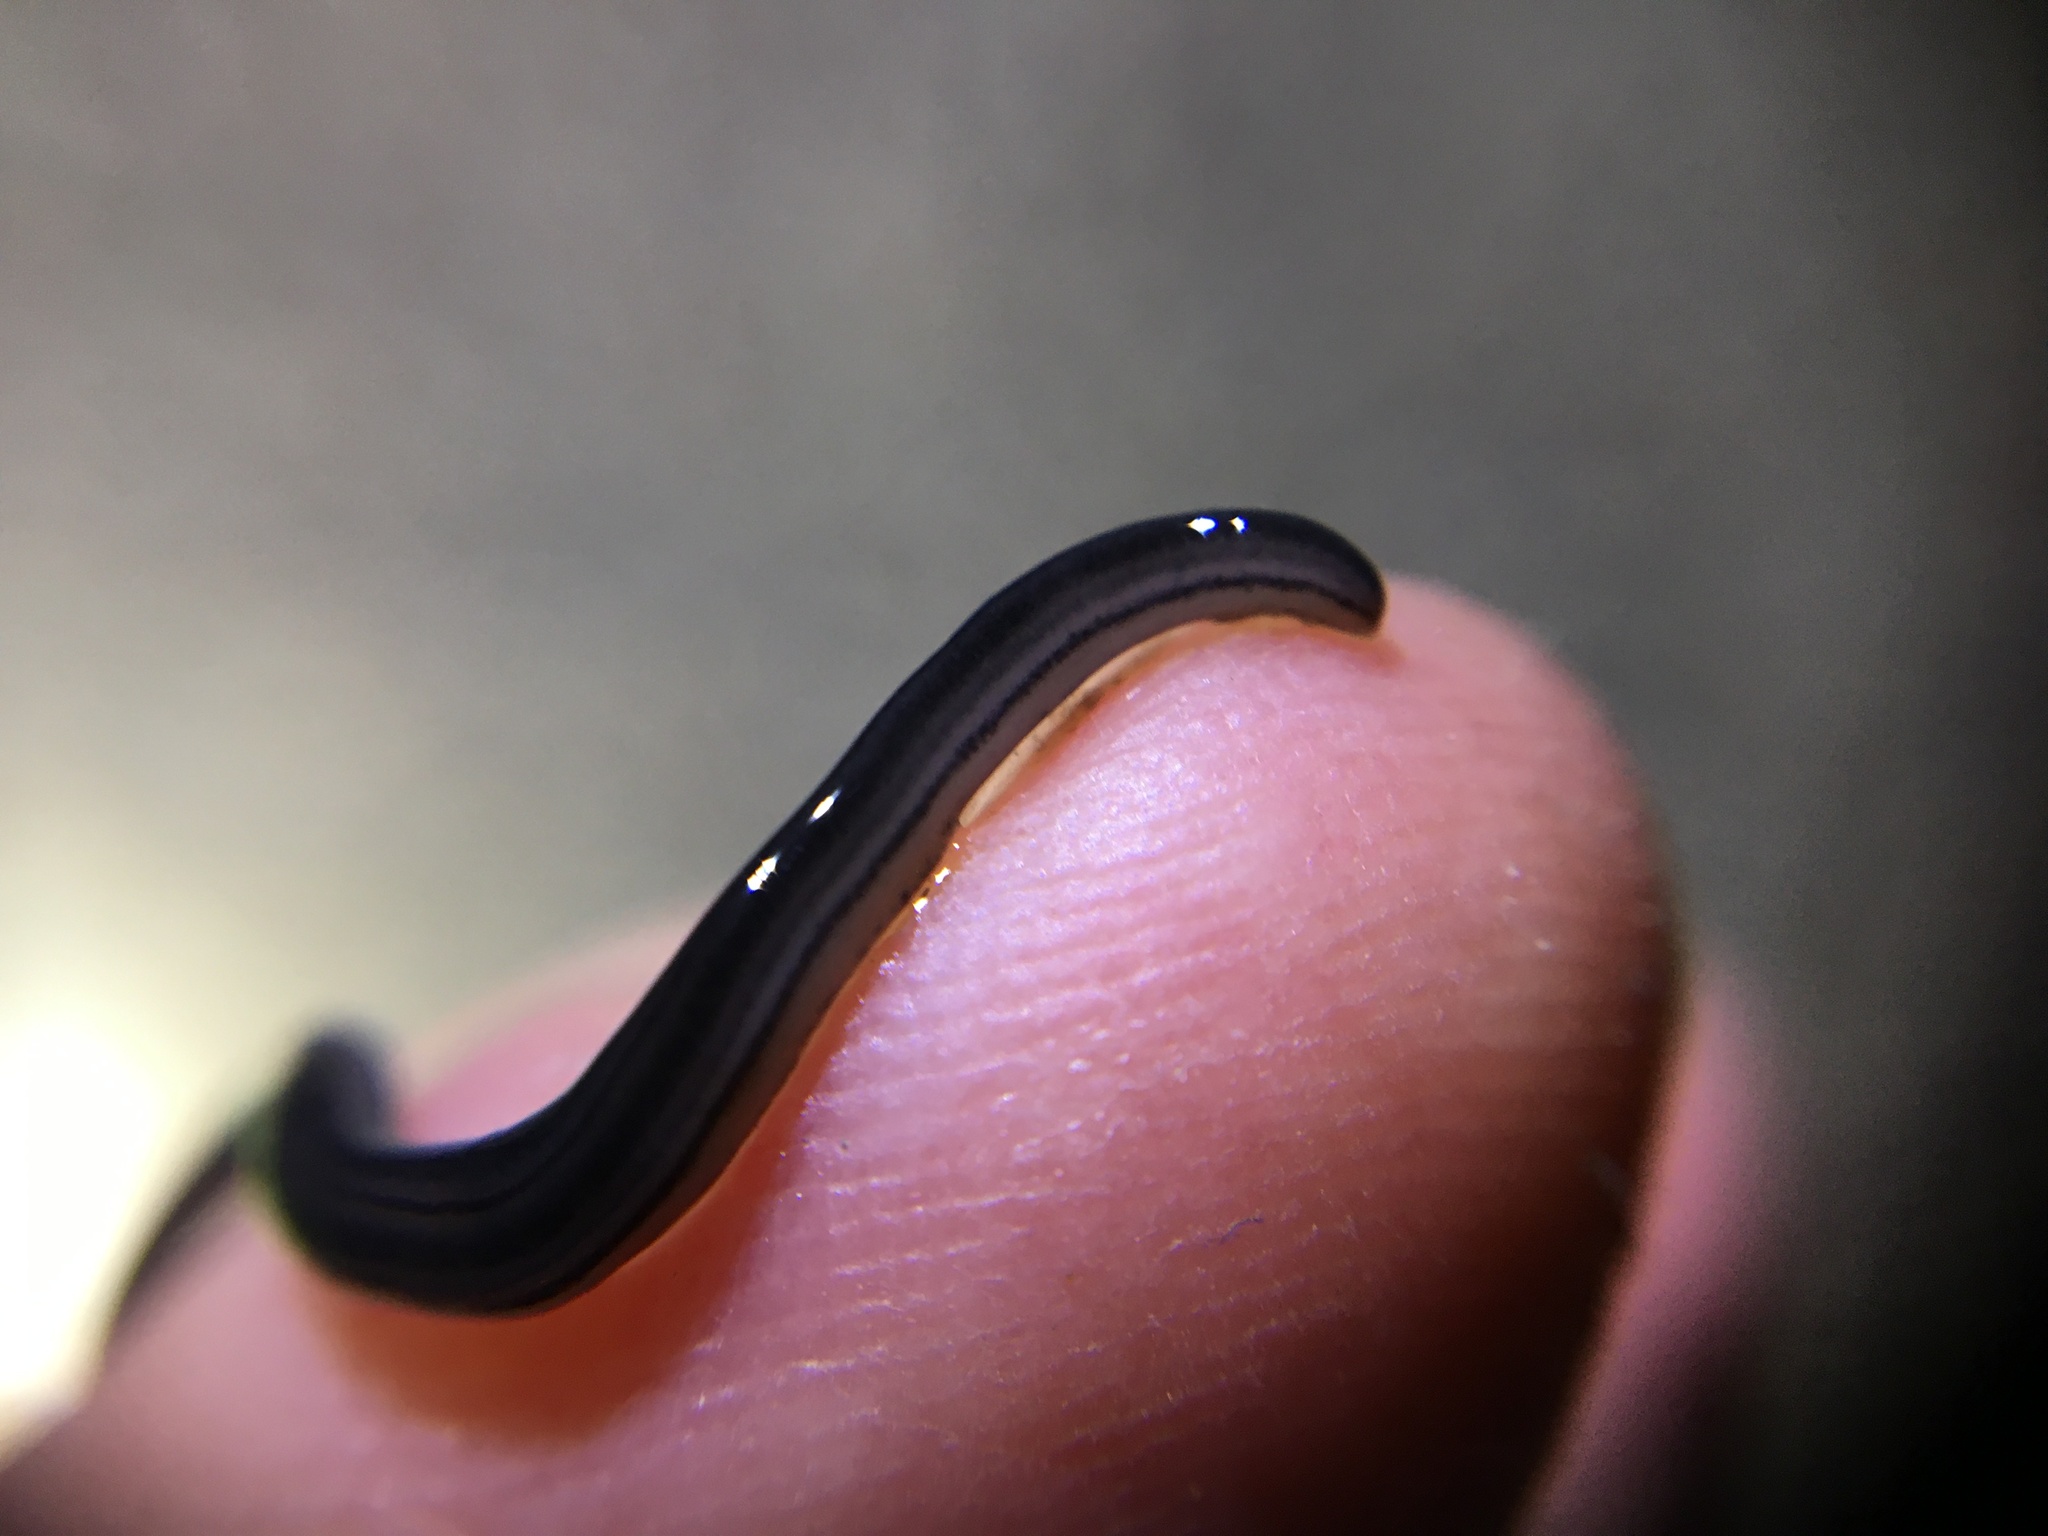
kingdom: Animalia
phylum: Platyhelminthes
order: Tricladida
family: Geoplanidae
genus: Endeavouria
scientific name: Endeavouria septemlineata
